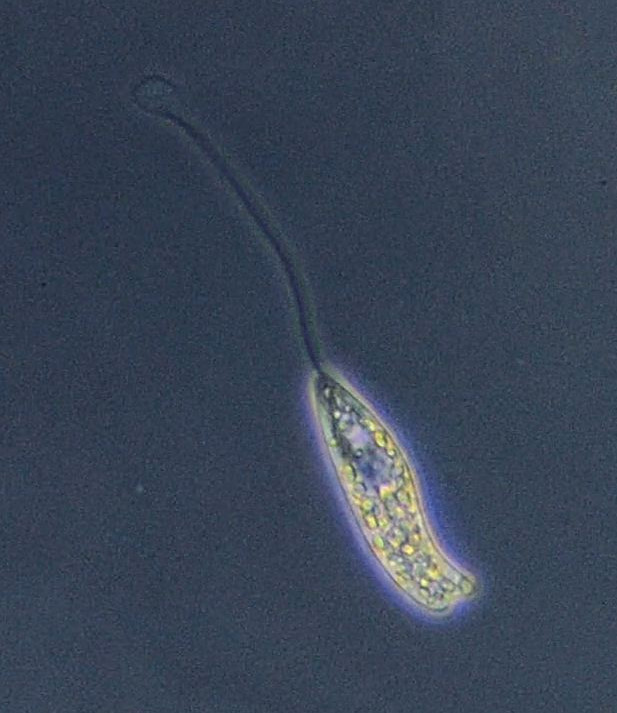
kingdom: Protozoa
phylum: Euglenozoa
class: Euglenoidea
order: Peranemida
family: Peranemidae
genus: Peranema
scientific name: Peranema Pseudoperanema trichophorum
